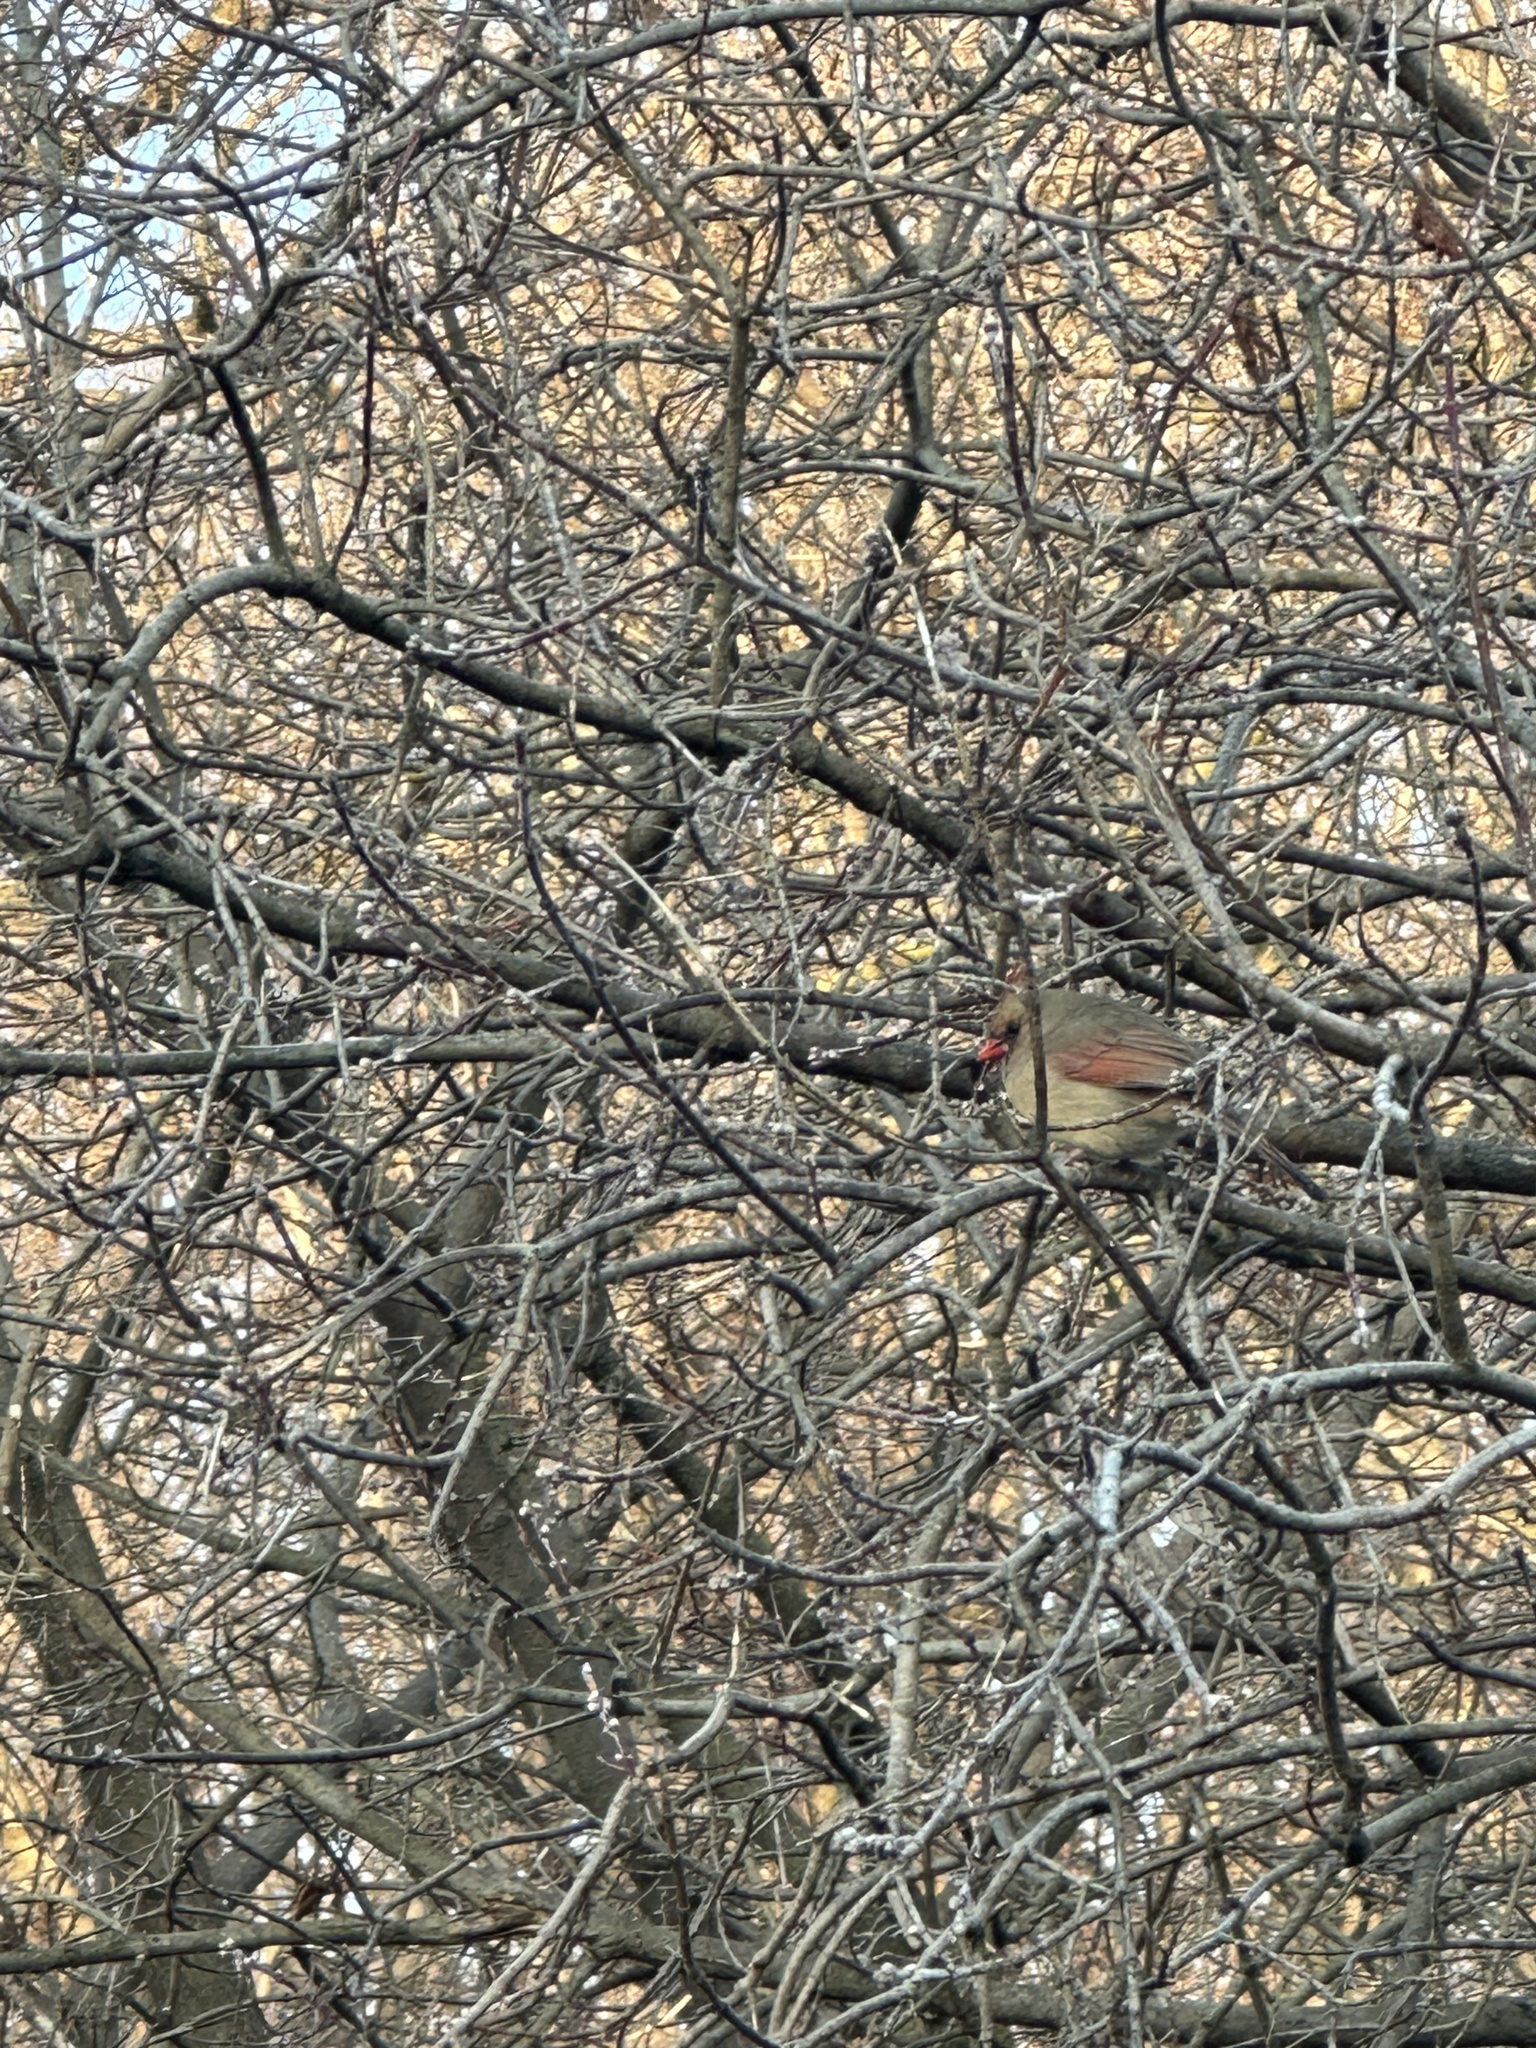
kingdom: Animalia
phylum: Chordata
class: Aves
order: Passeriformes
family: Cardinalidae
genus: Cardinalis
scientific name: Cardinalis cardinalis
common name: Northern cardinal
